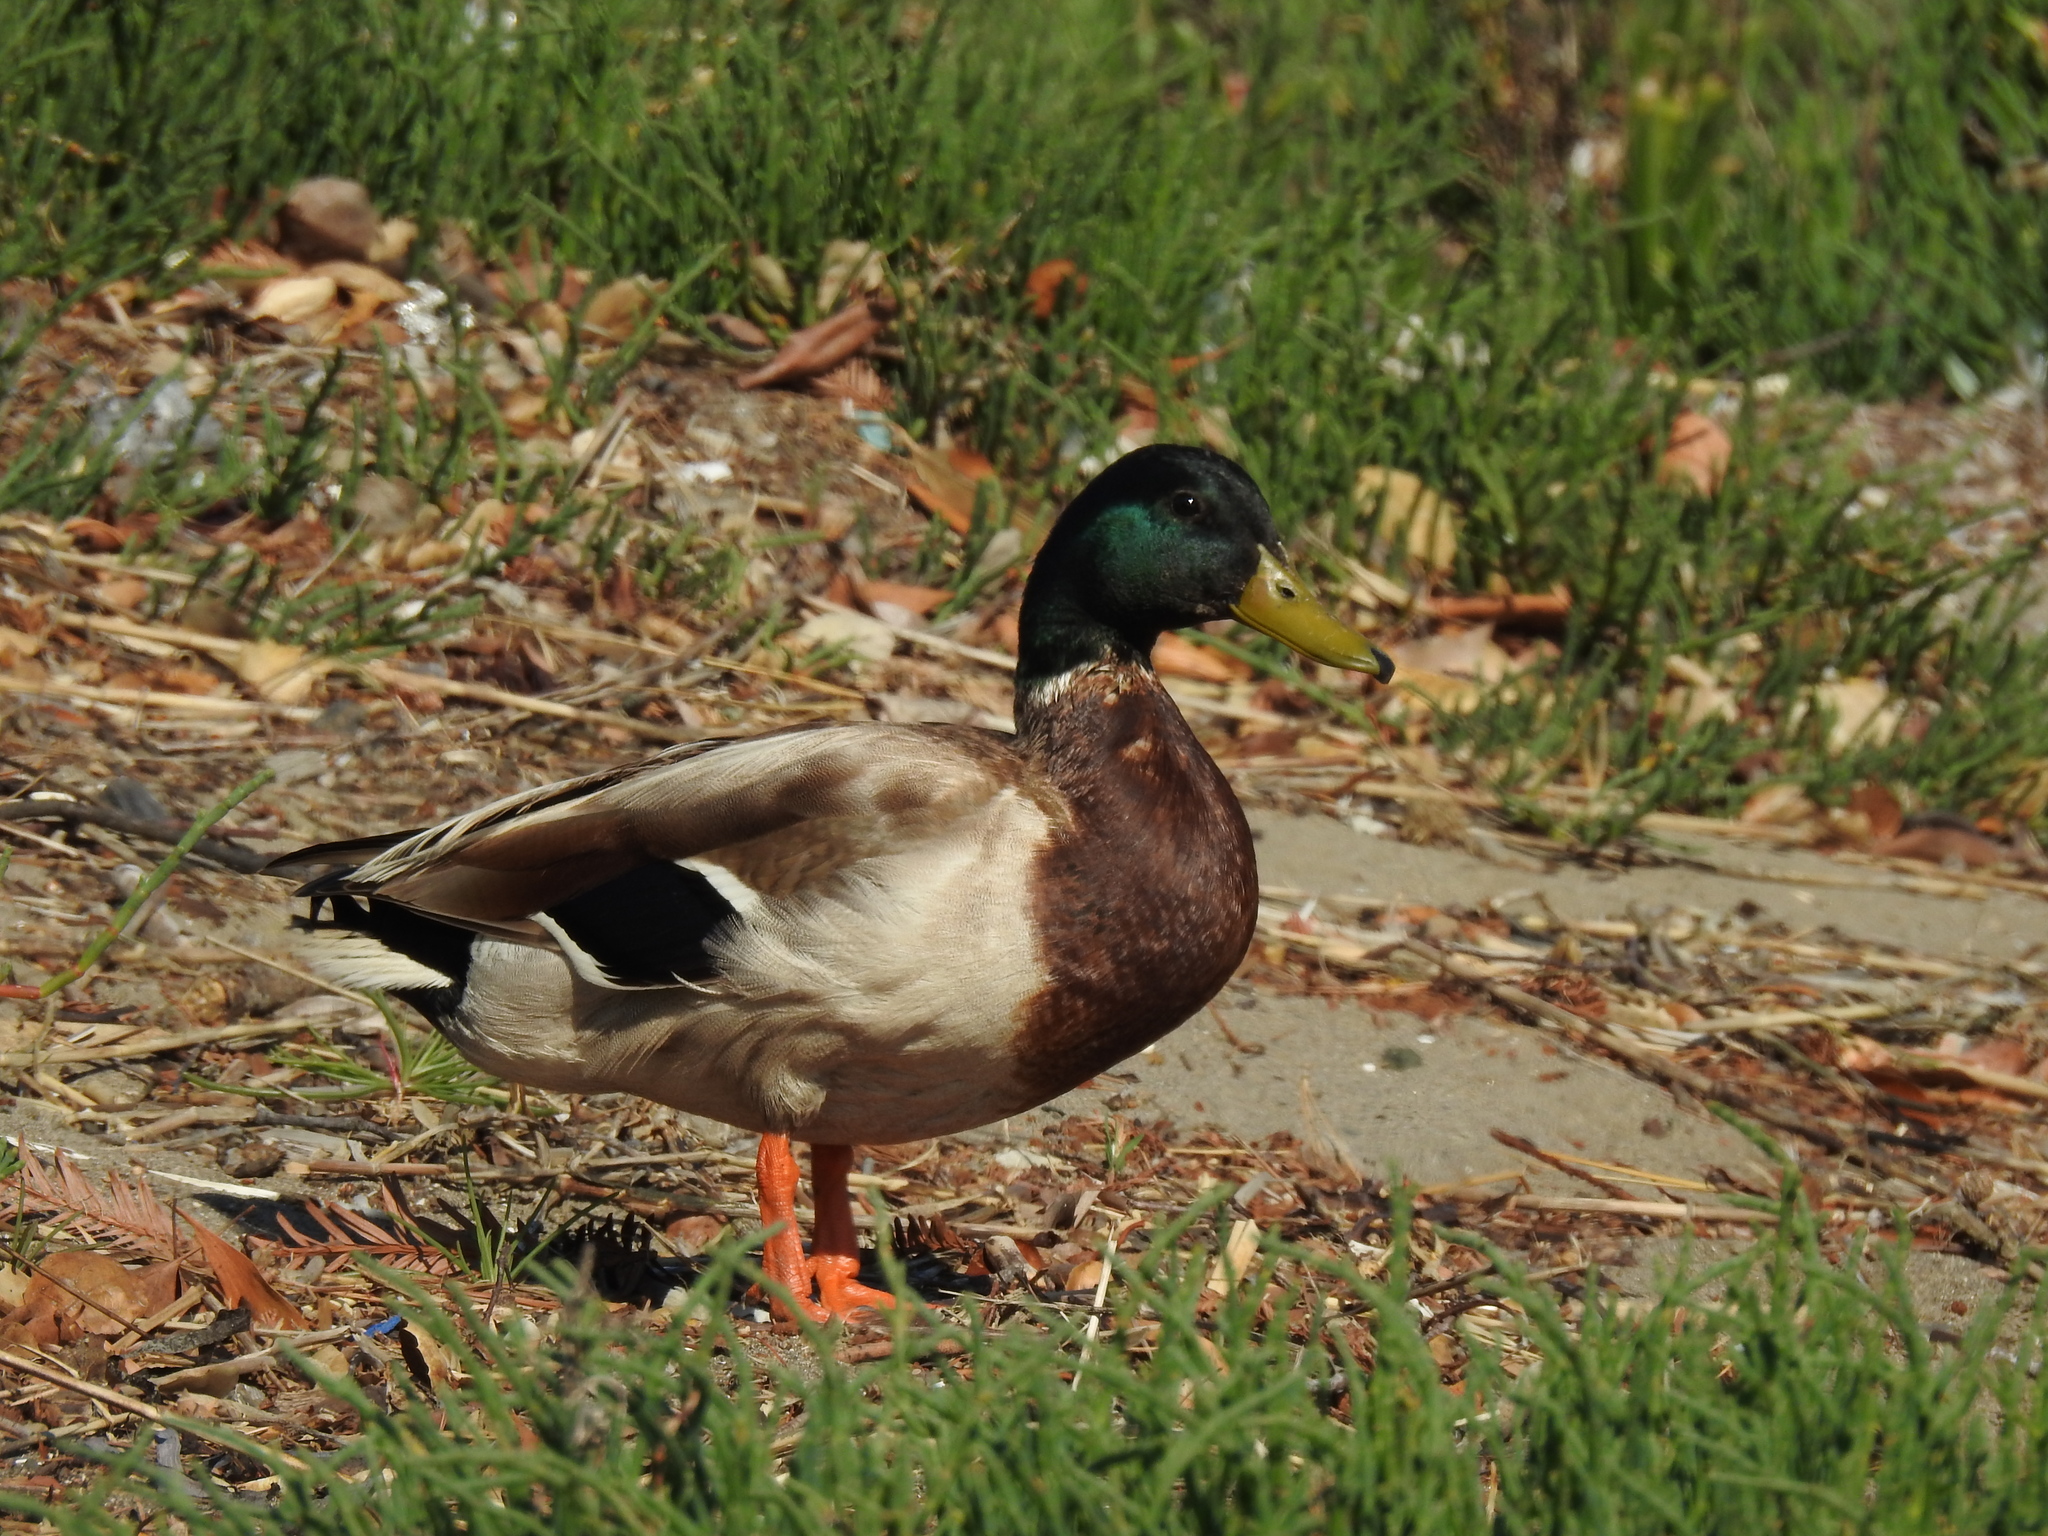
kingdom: Animalia
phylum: Chordata
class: Aves
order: Anseriformes
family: Anatidae
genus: Anas
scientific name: Anas platyrhynchos
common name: Mallard
